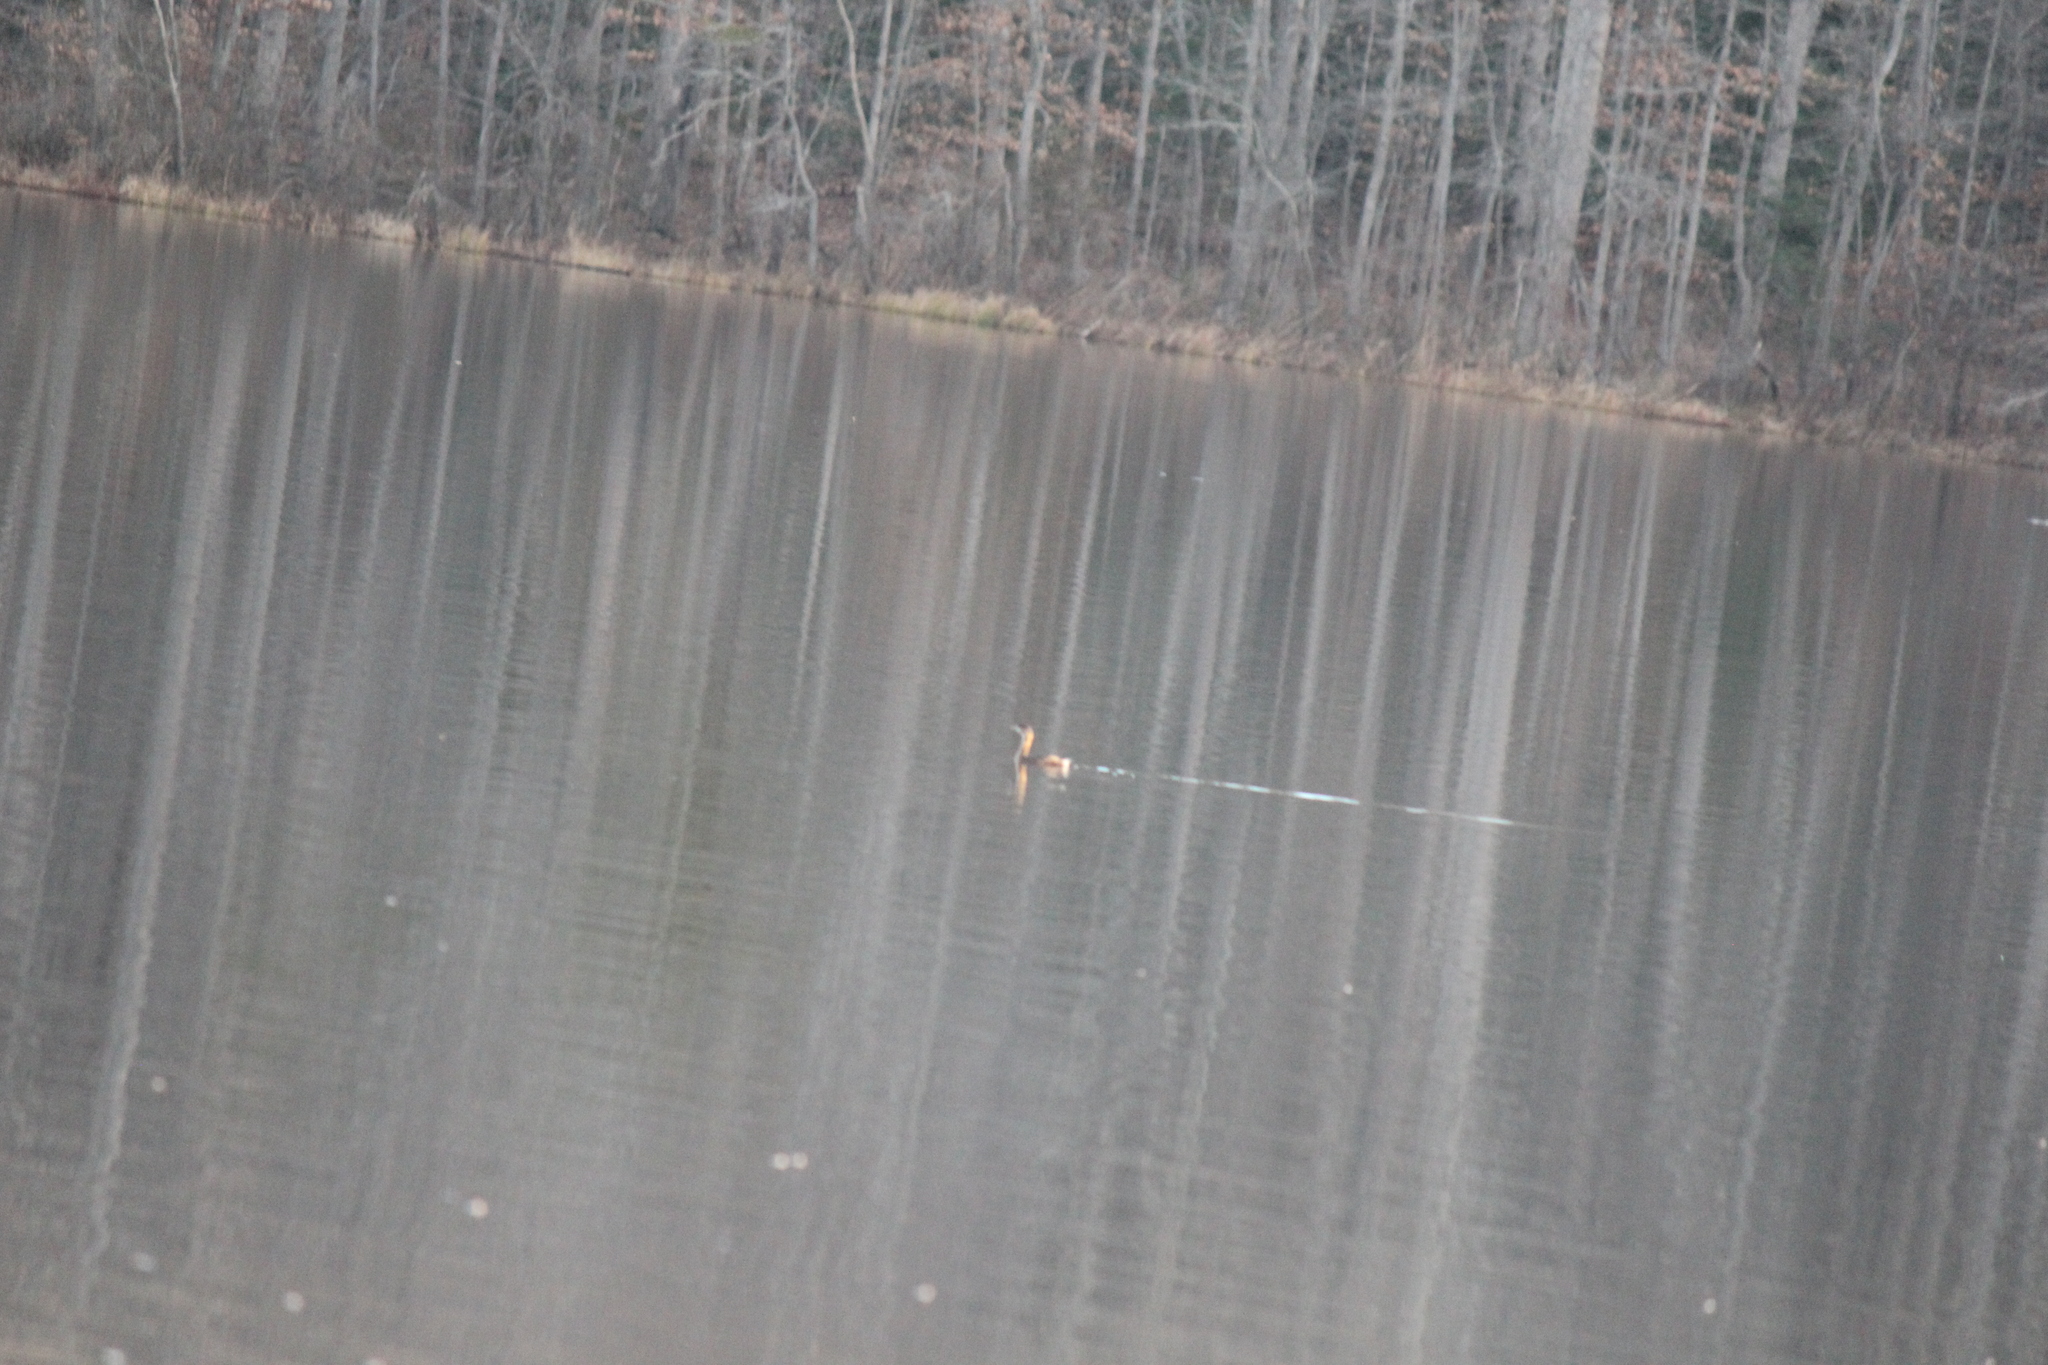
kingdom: Animalia
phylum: Chordata
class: Aves
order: Podicipediformes
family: Podicipedidae
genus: Podilymbus
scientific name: Podilymbus podiceps
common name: Pied-billed grebe
